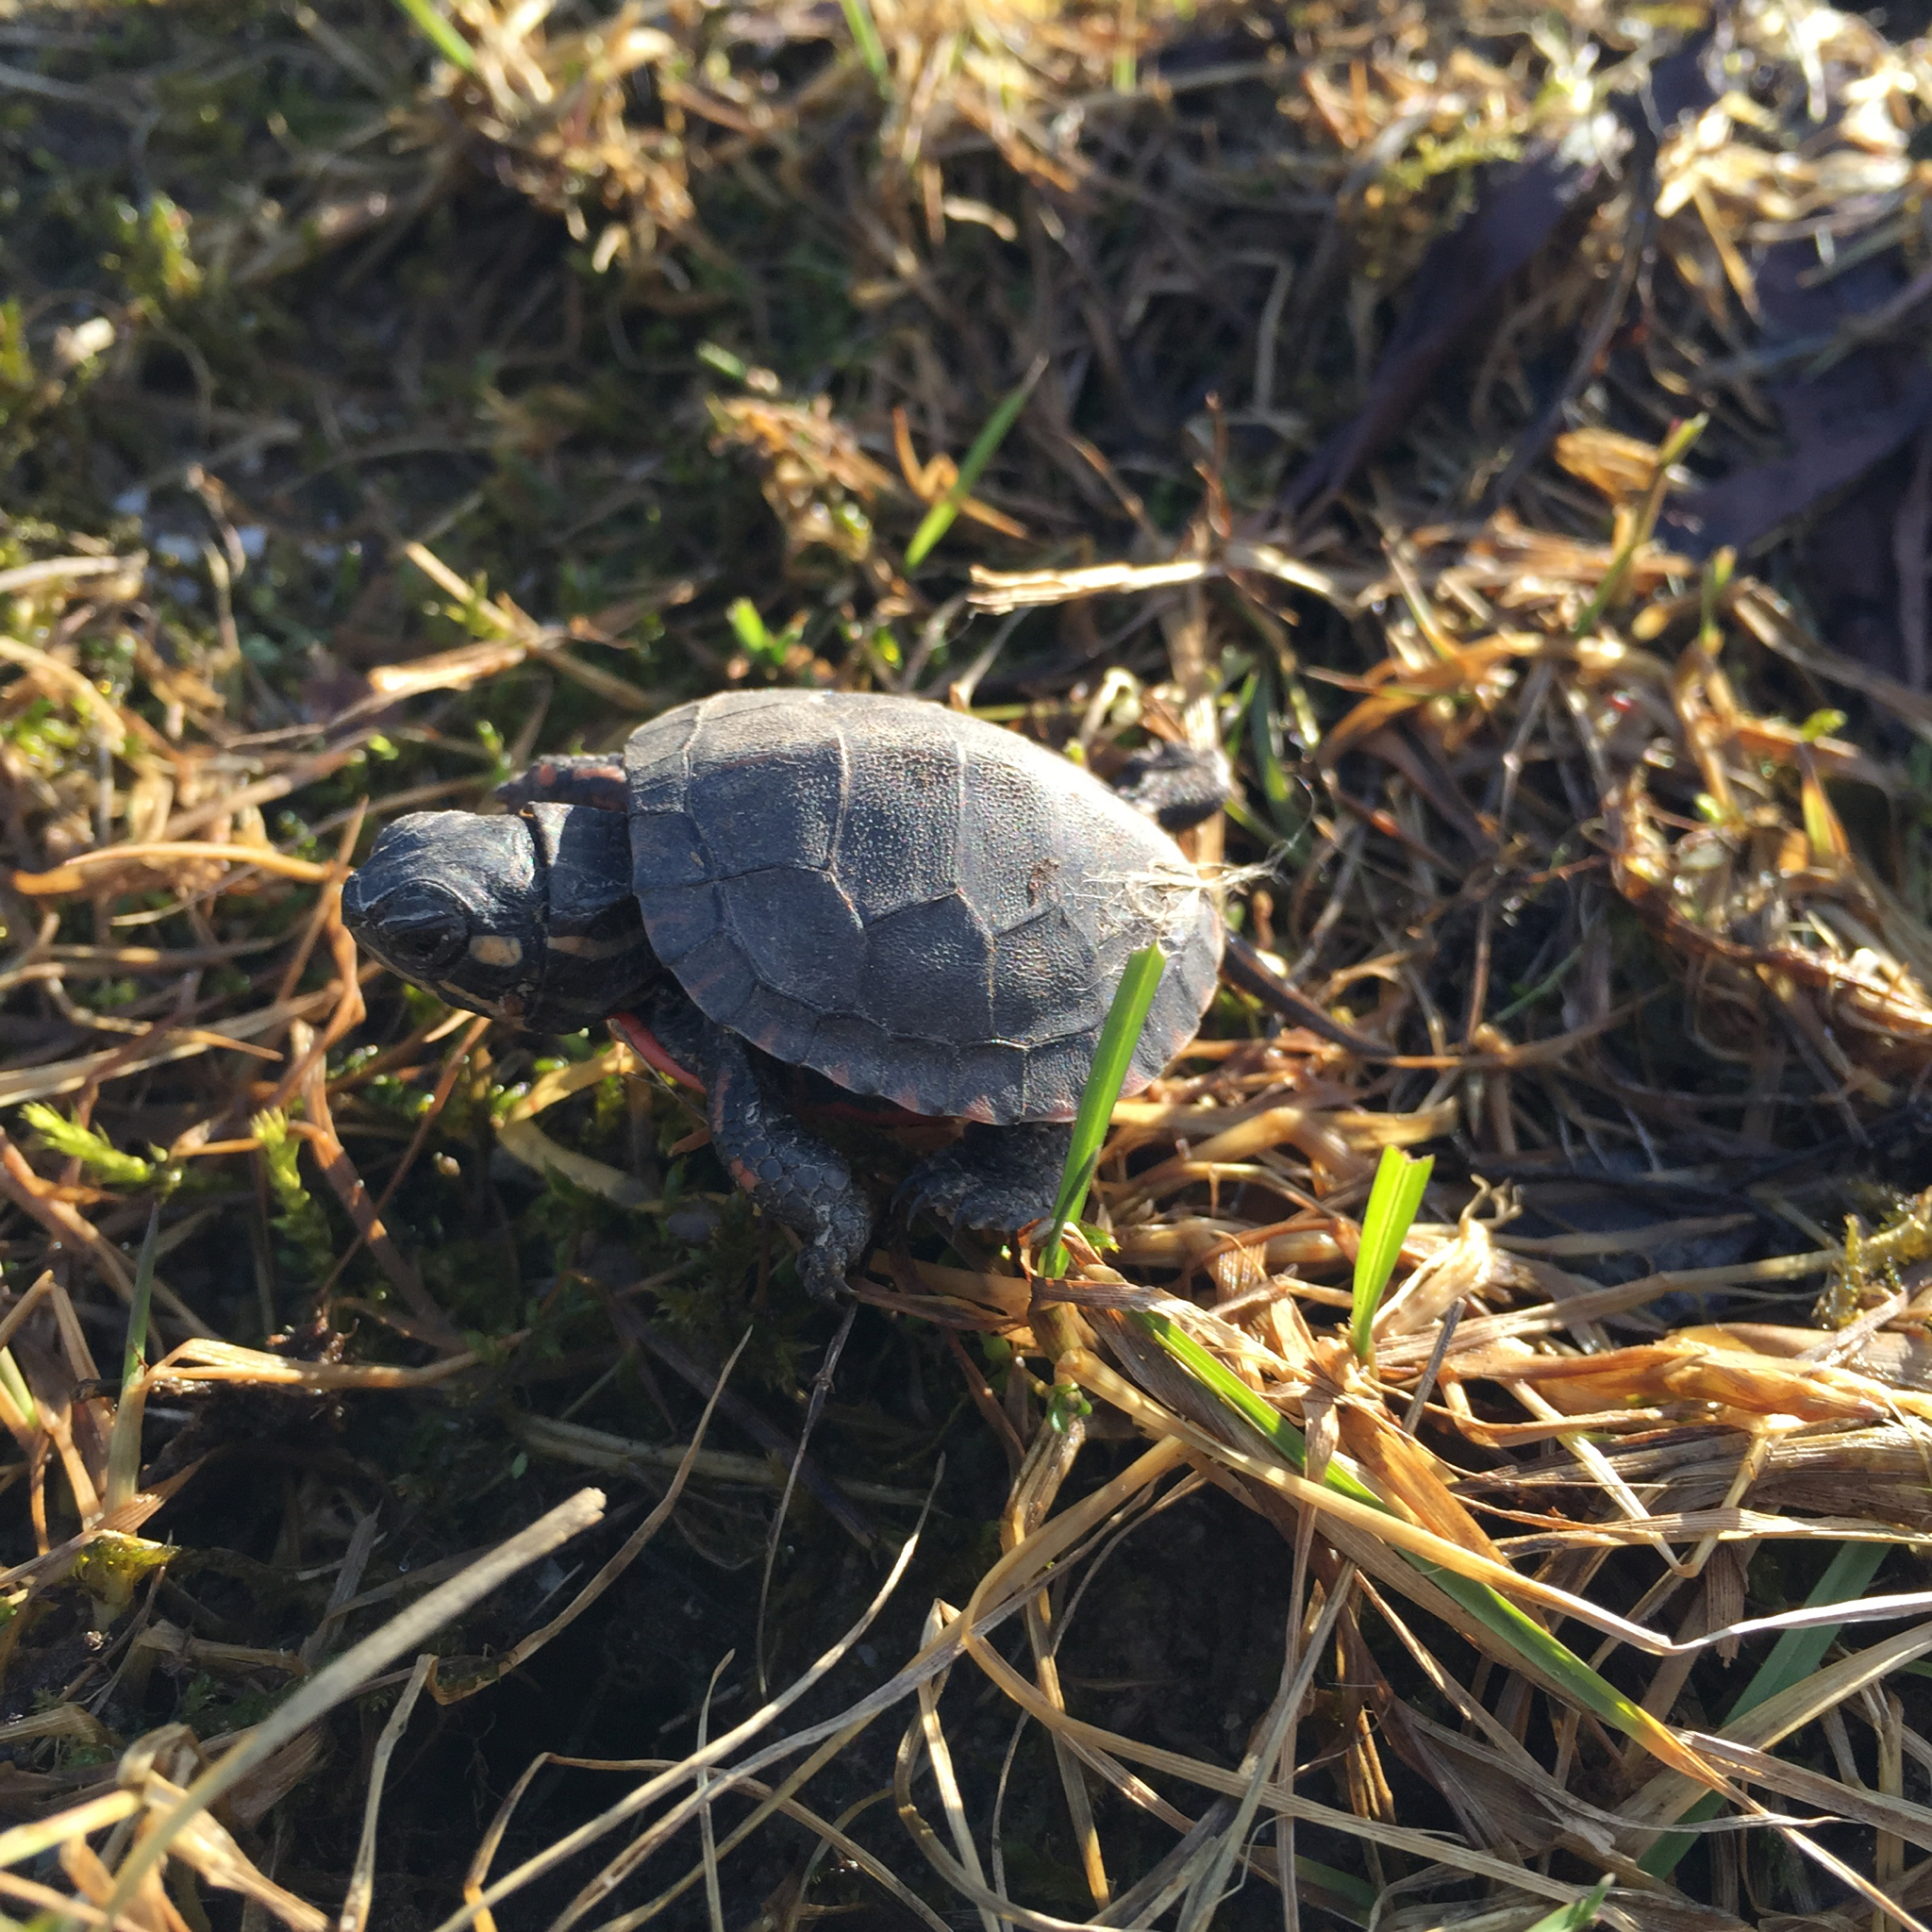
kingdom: Animalia
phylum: Chordata
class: Testudines
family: Emydidae
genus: Chrysemys
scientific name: Chrysemys picta
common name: Painted turtle
